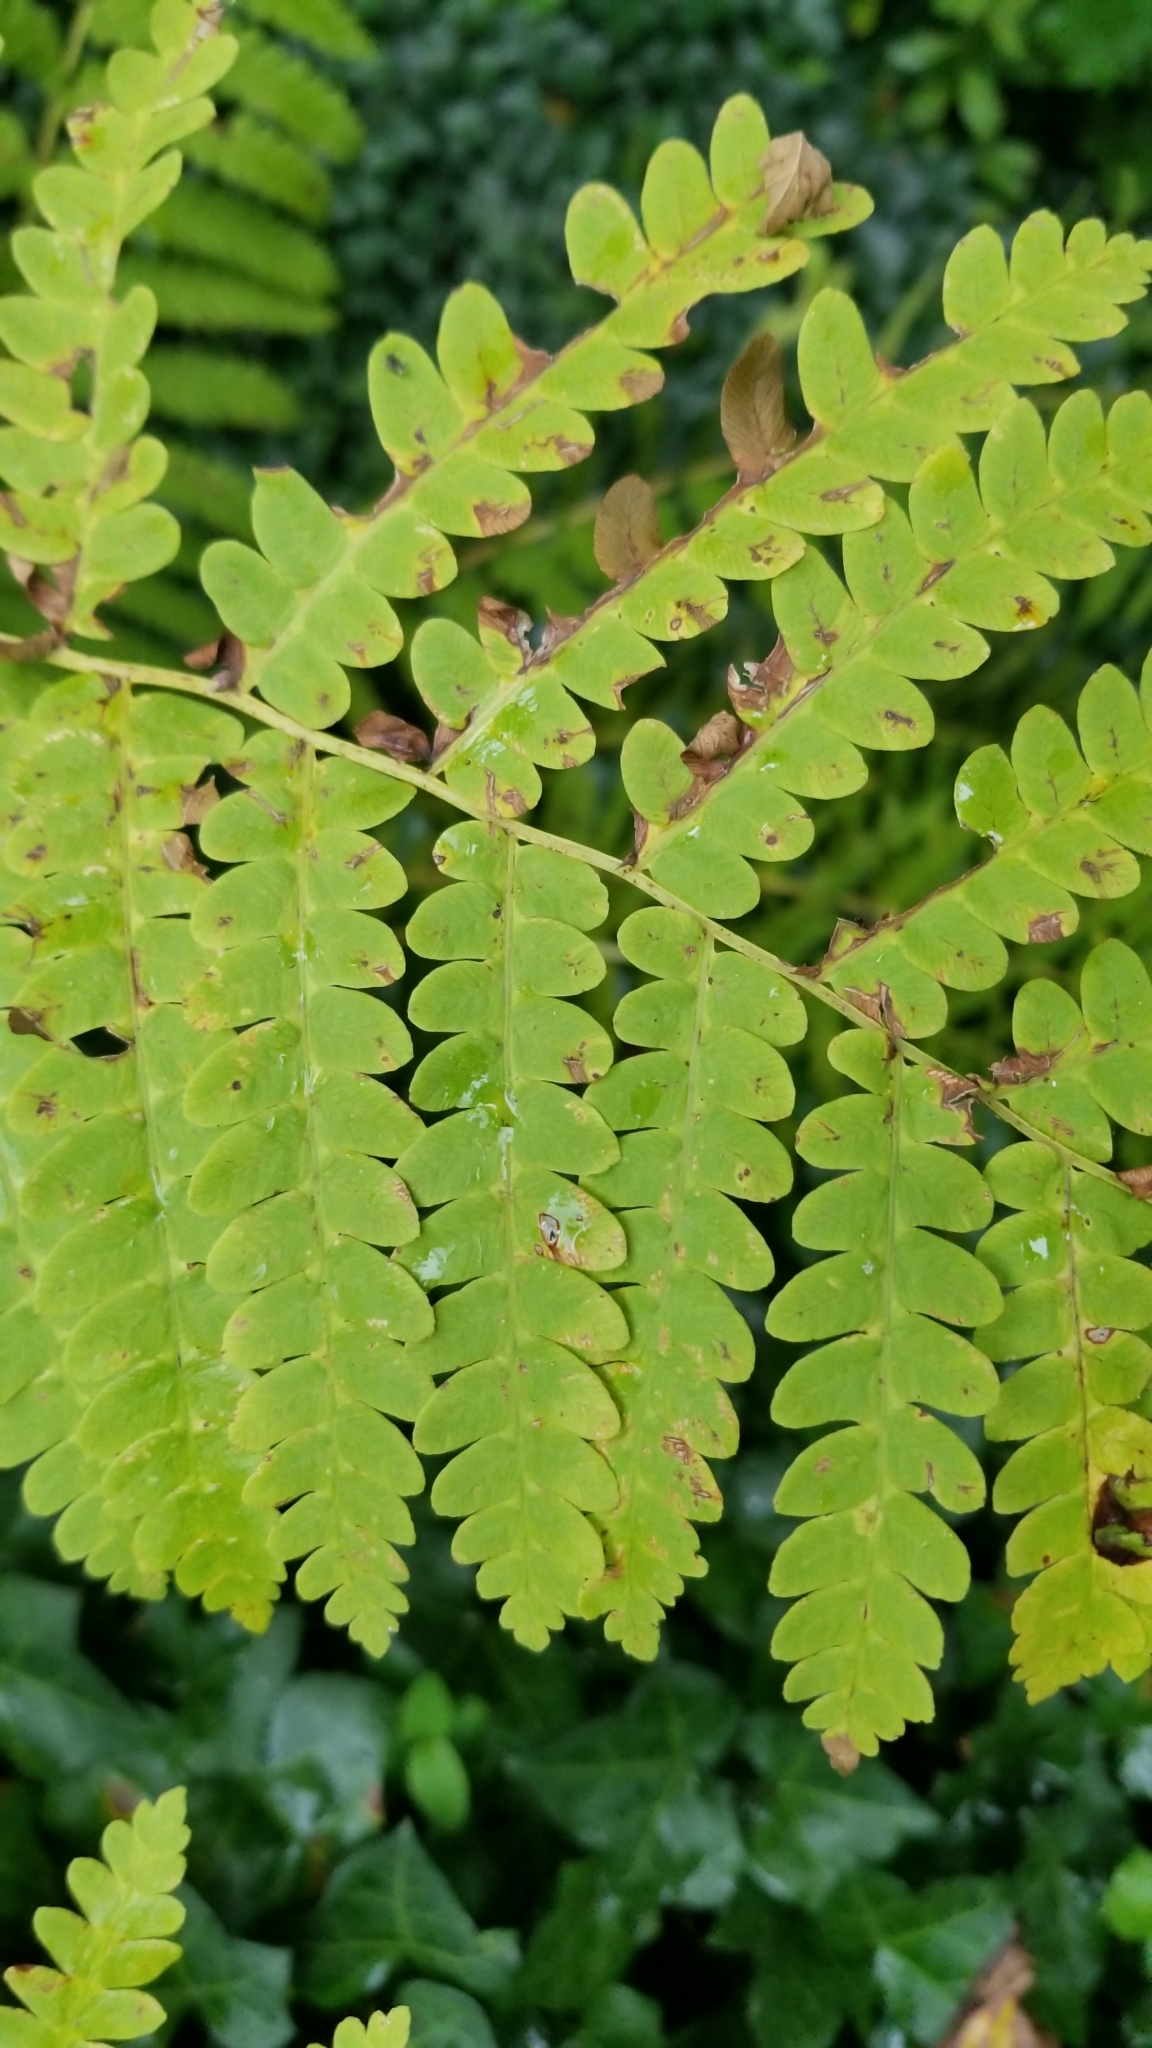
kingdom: Plantae
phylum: Tracheophyta
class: Polypodiopsida
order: Osmundales
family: Osmundaceae
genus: Claytosmunda
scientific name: Claytosmunda claytoniana
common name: Clayton's fern
